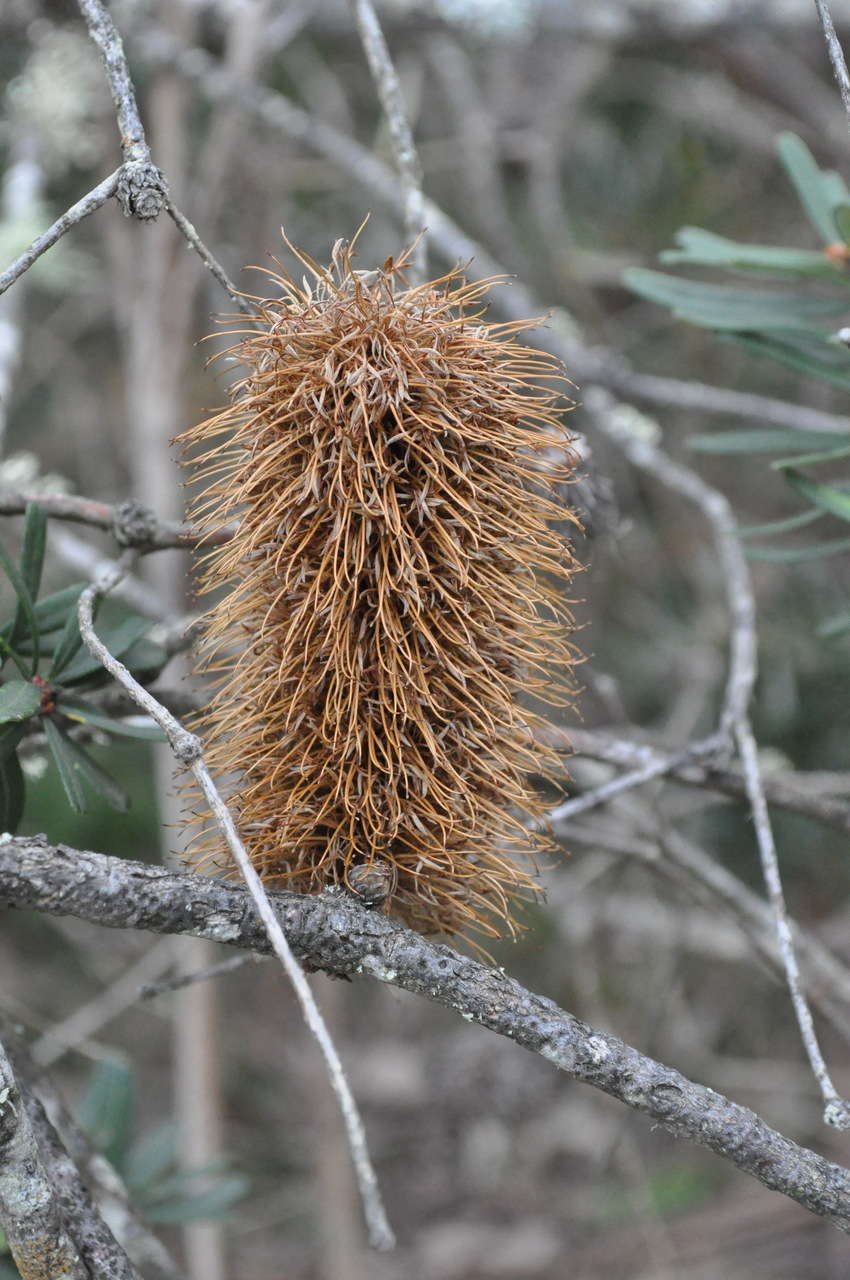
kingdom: Plantae
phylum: Tracheophyta
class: Magnoliopsida
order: Proteales
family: Proteaceae
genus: Banksia
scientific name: Banksia marginata
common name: Silver banksia
